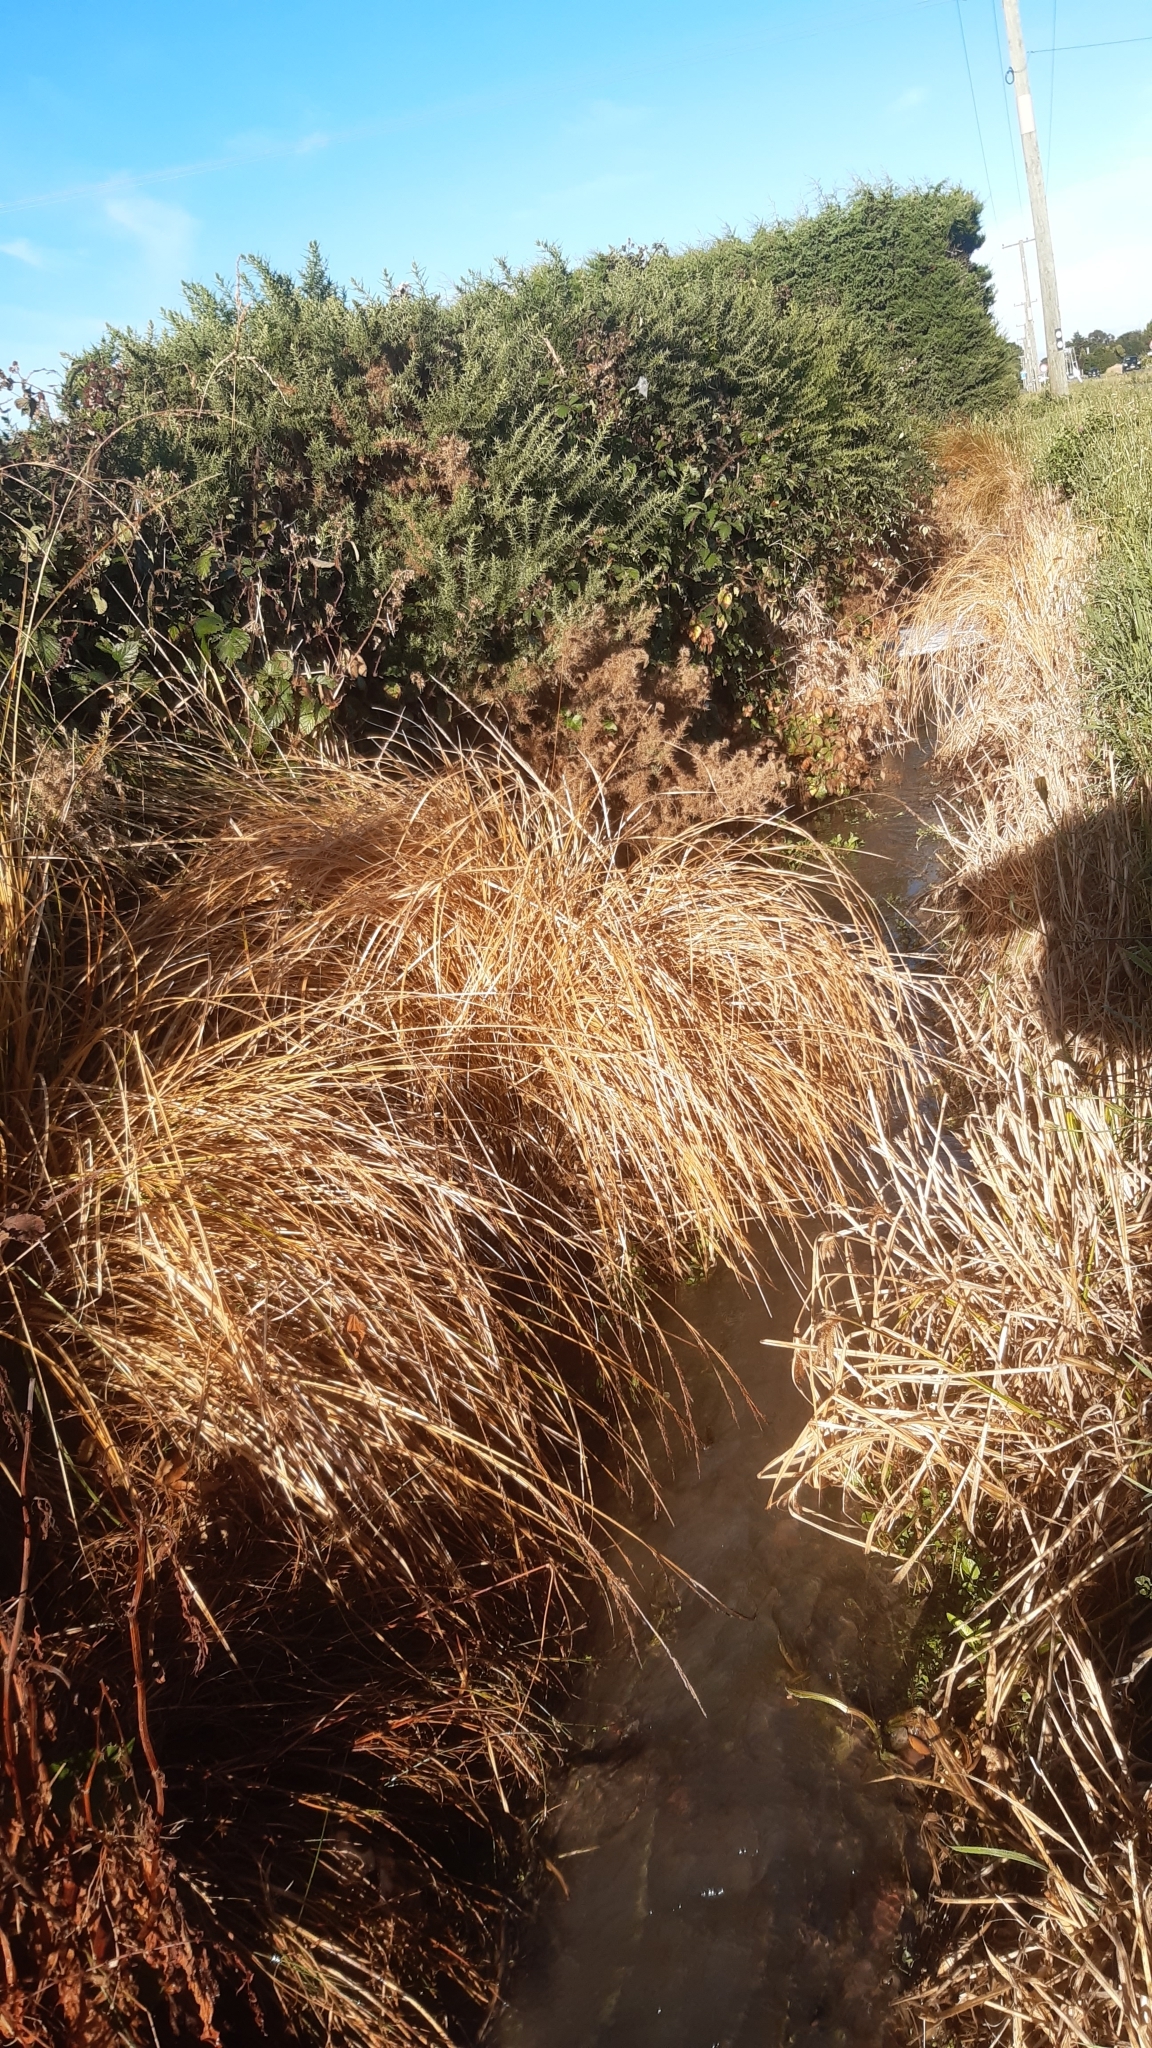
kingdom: Plantae
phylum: Tracheophyta
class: Liliopsida
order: Poales
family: Cyperaceae
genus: Carex
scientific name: Carex secta
